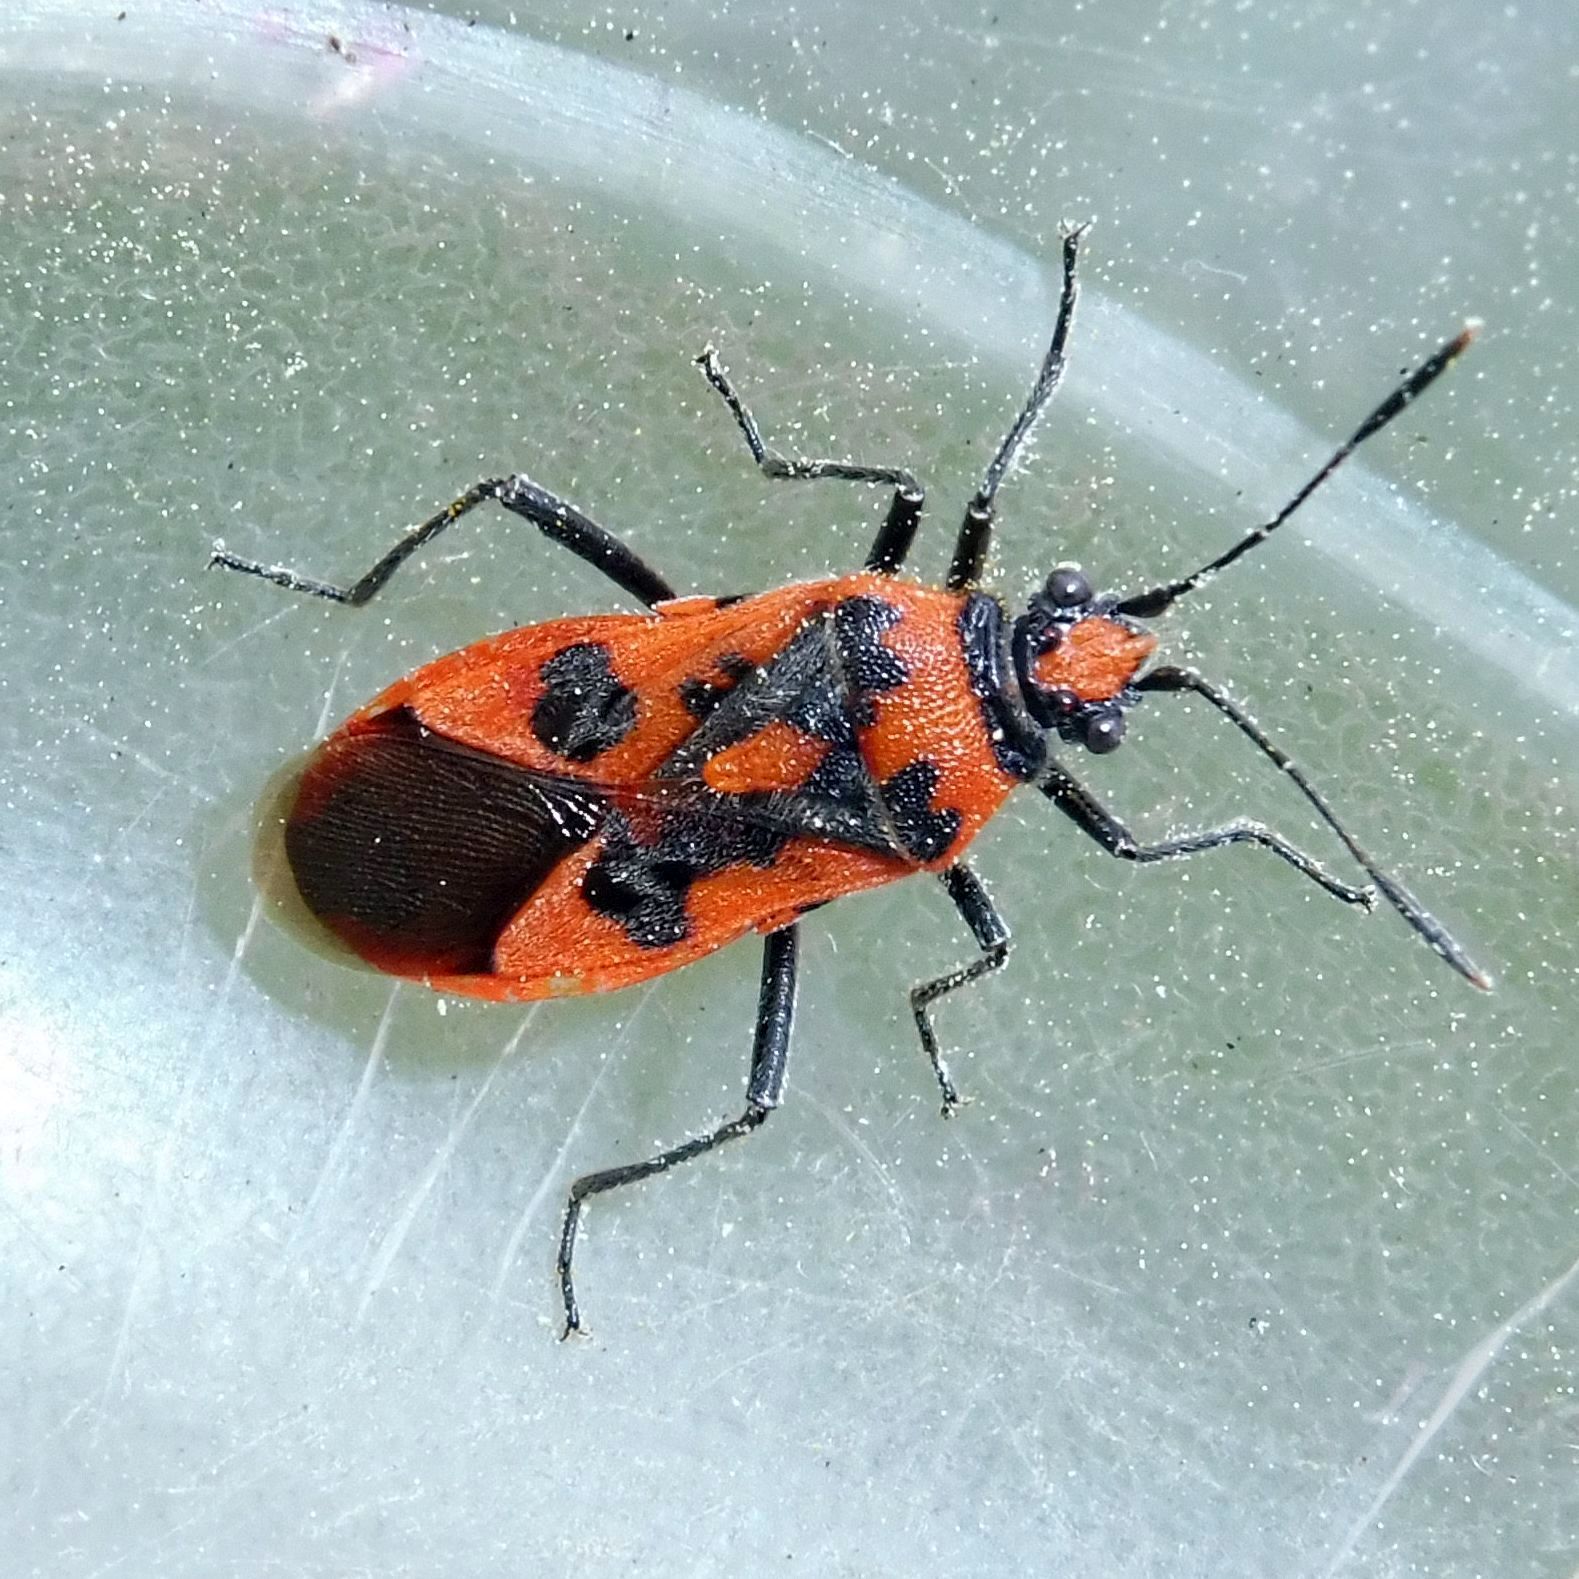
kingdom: Animalia
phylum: Arthropoda
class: Insecta
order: Hemiptera
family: Rhopalidae
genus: Corizus
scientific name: Corizus hyoscyami
